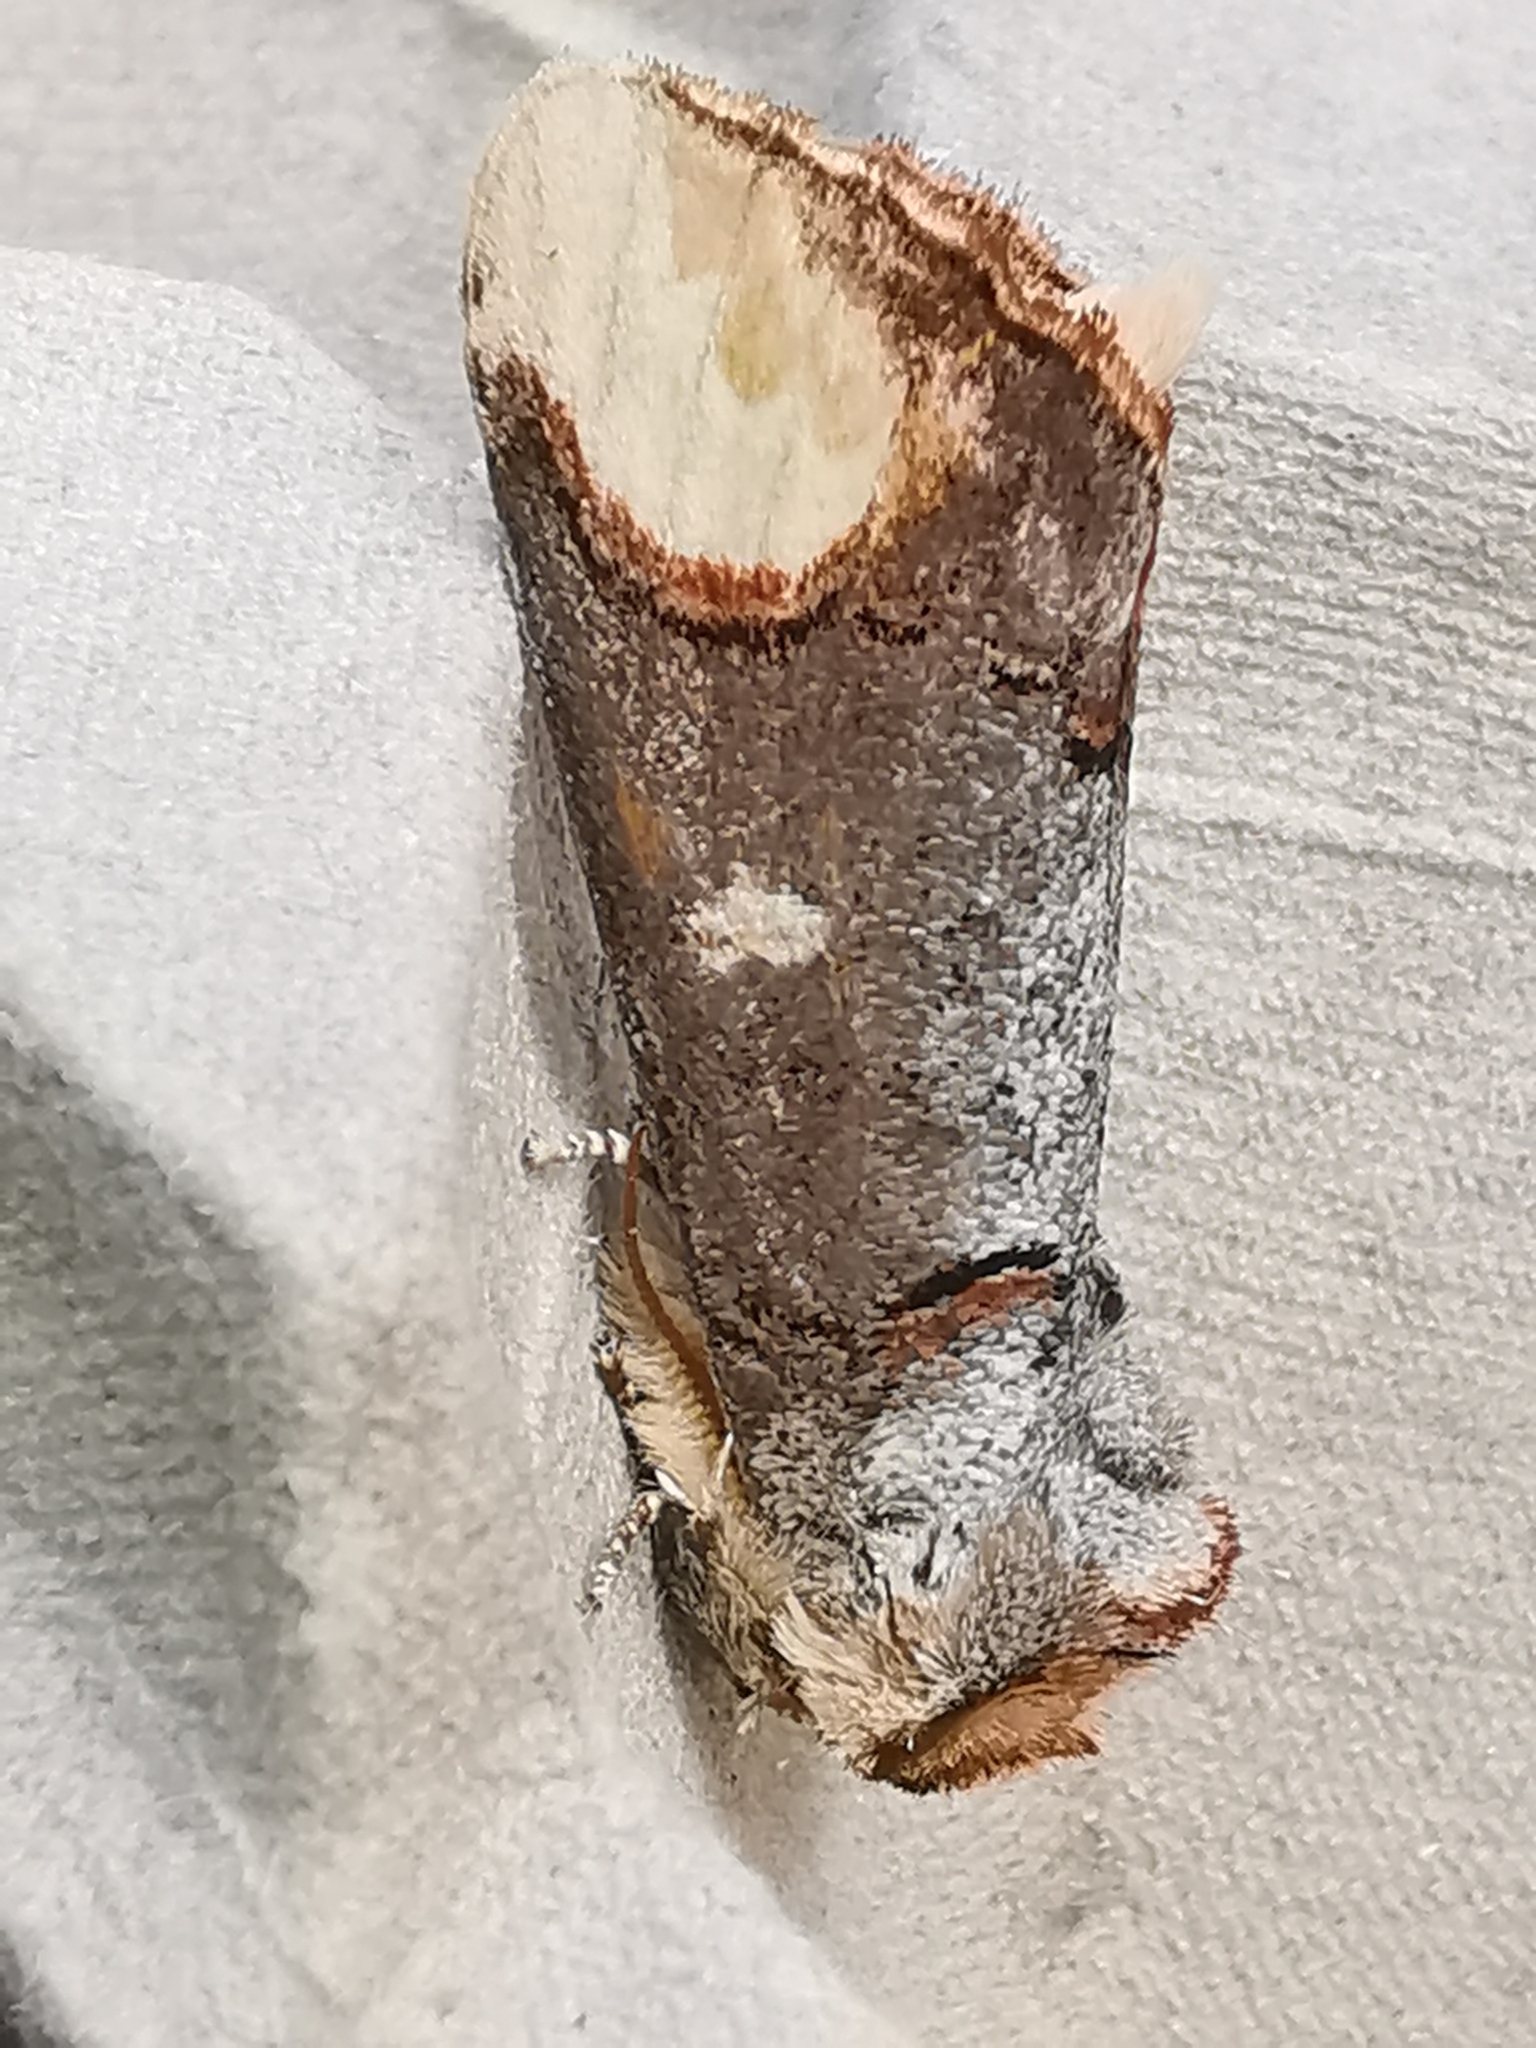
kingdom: Animalia
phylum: Arthropoda
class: Insecta
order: Lepidoptera
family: Notodontidae
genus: Phalera
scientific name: Phalera bucephala
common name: Buff-tip
